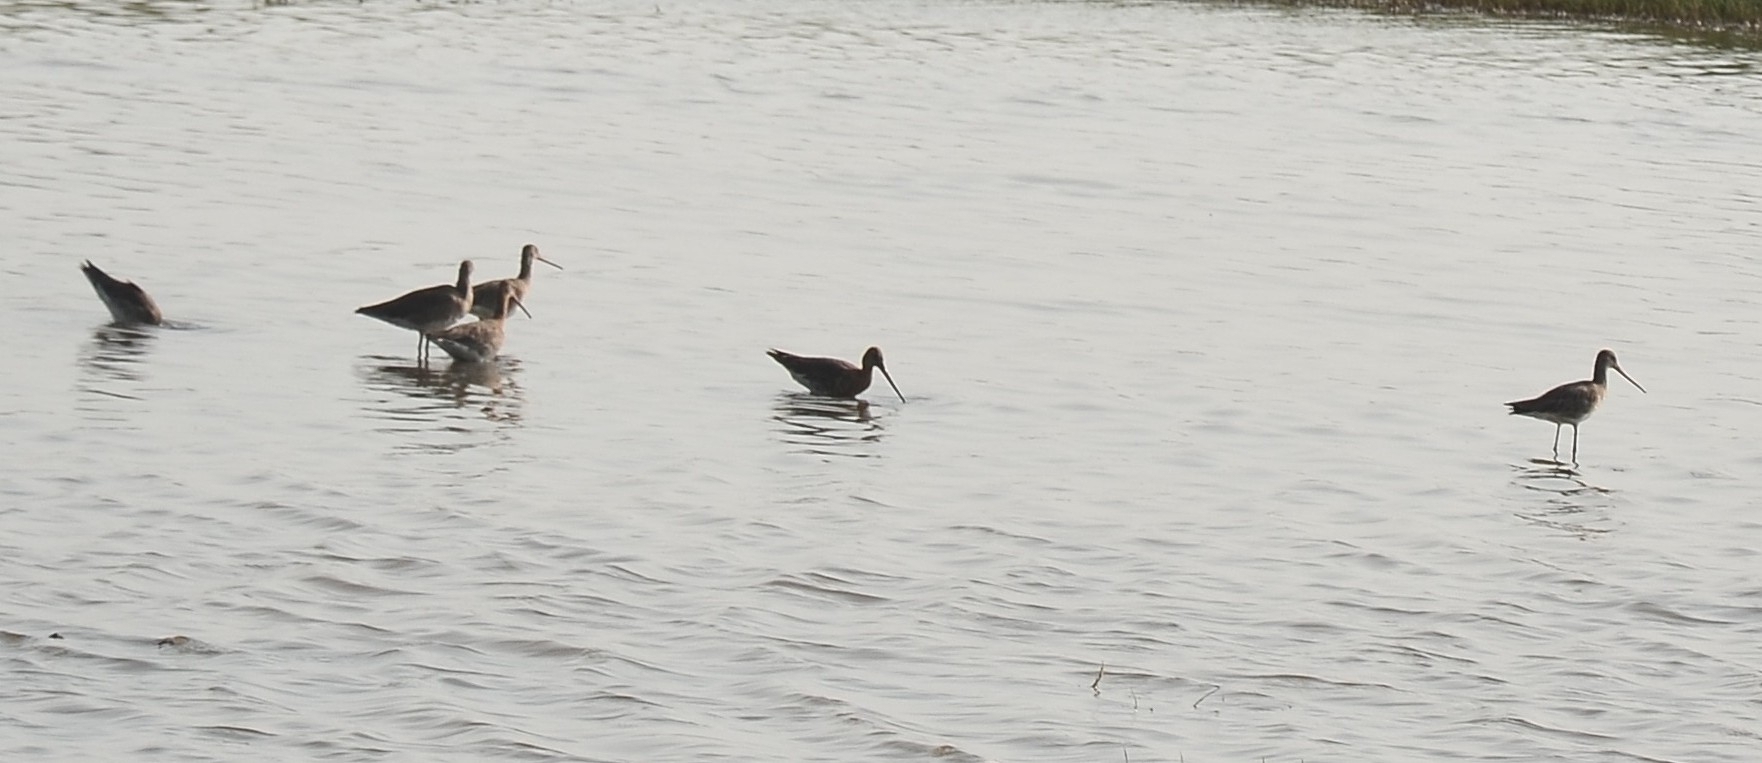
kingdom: Animalia
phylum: Chordata
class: Aves
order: Charadriiformes
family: Scolopacidae
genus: Limosa
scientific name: Limosa limosa
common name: Black-tailed godwit
